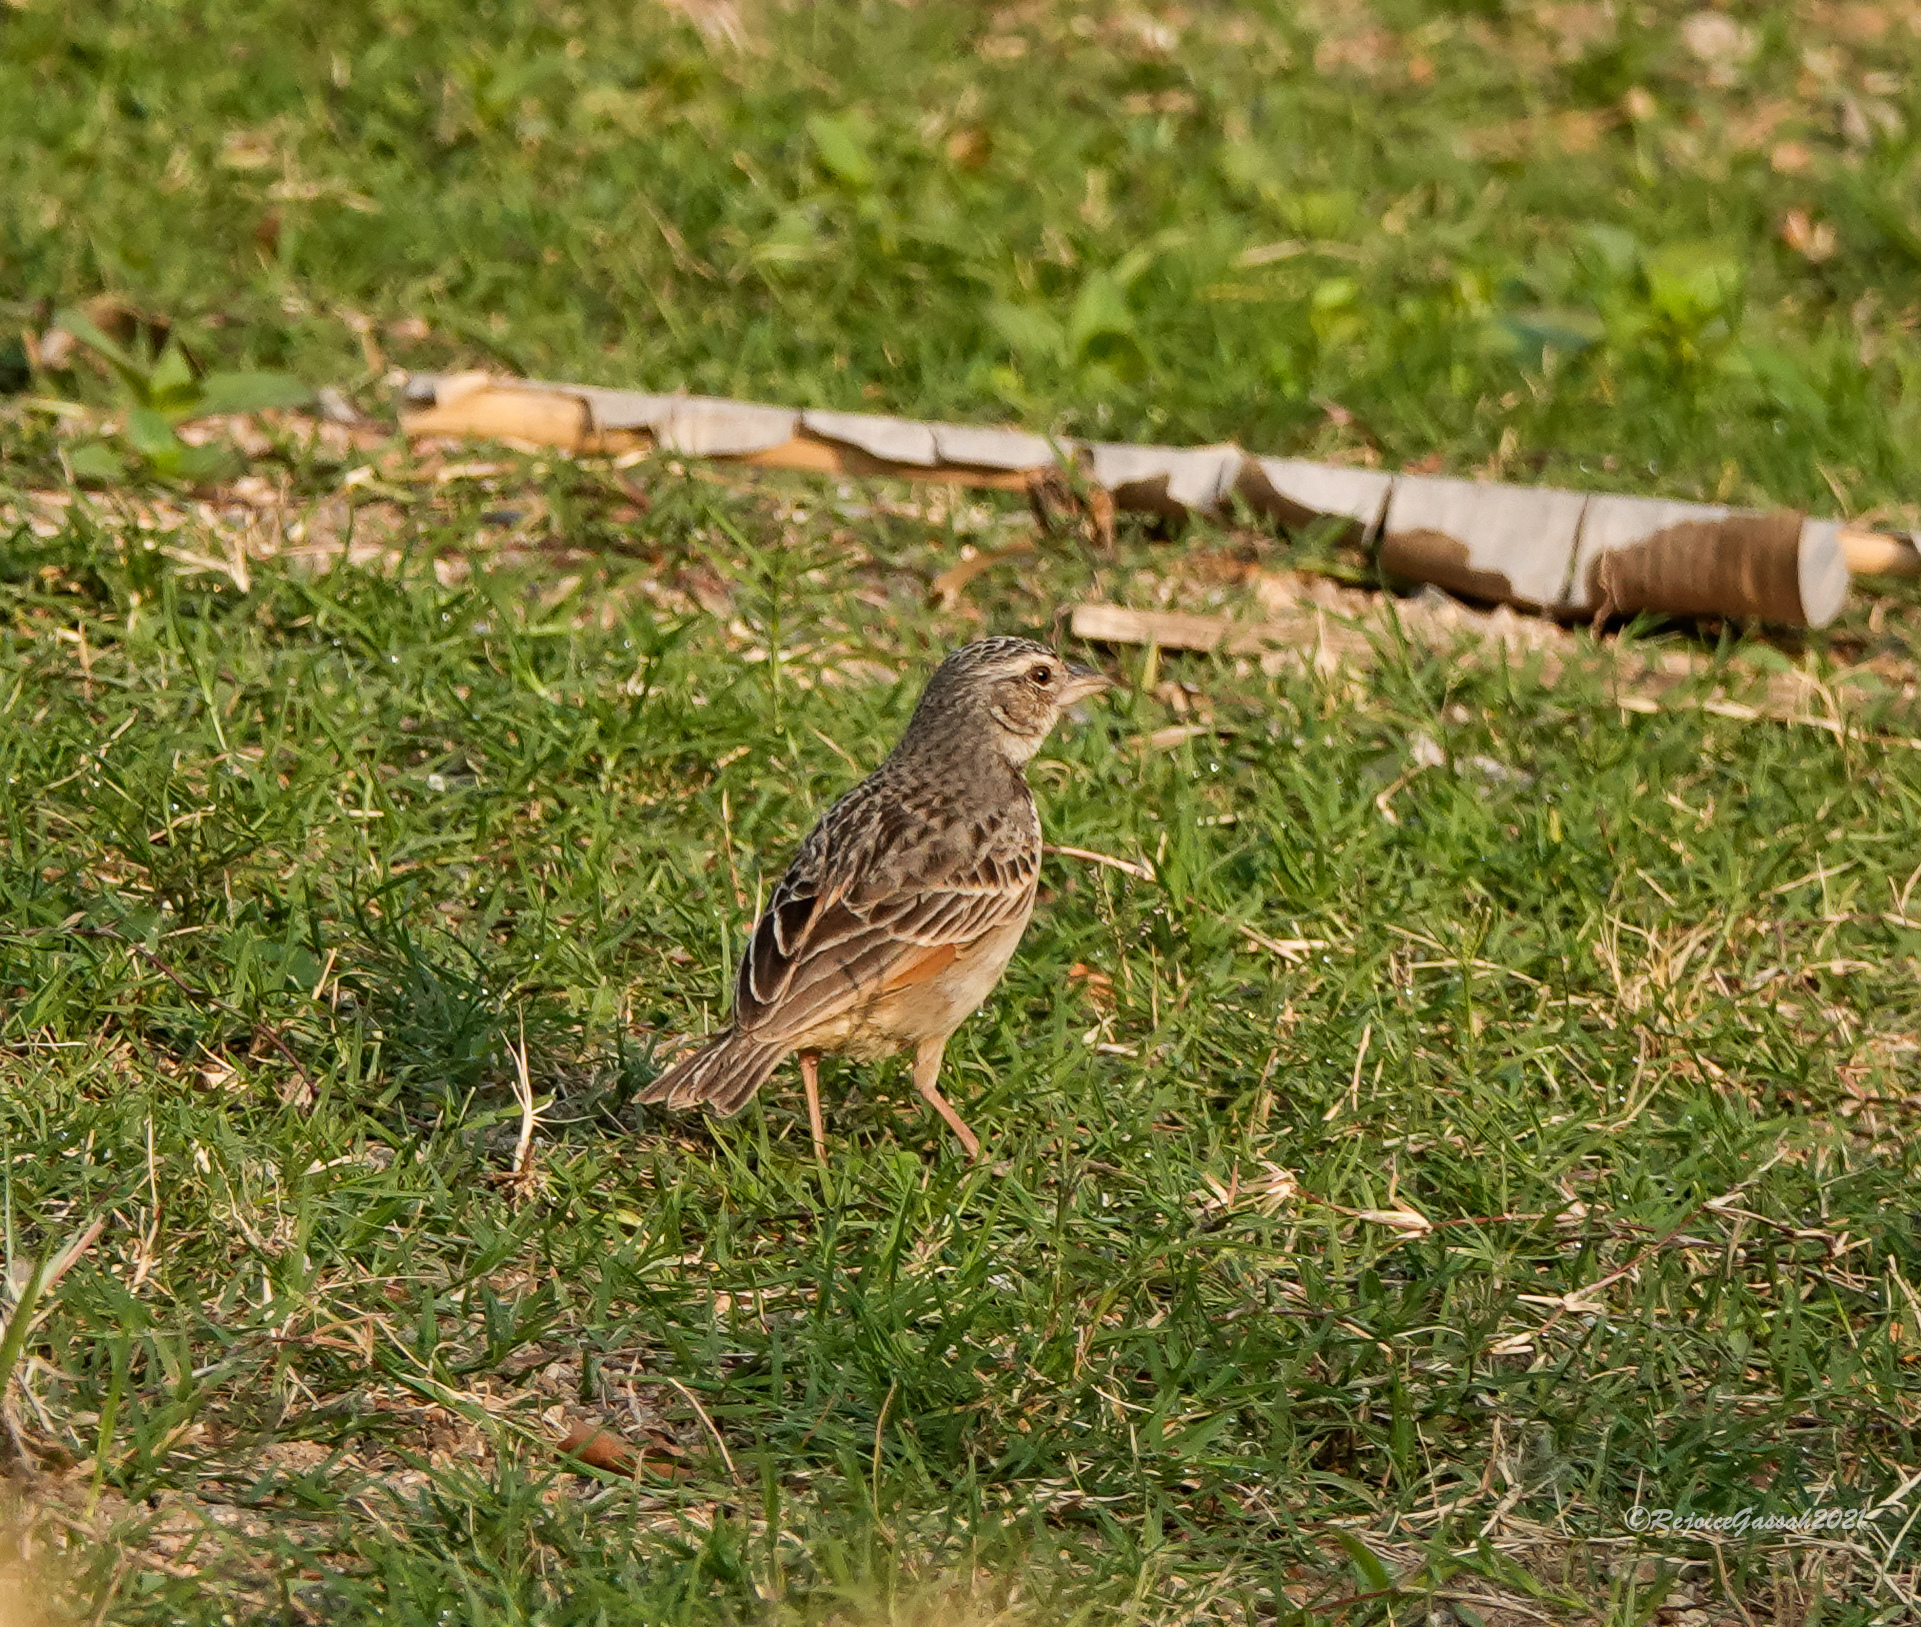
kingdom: Animalia
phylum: Chordata
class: Aves
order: Passeriformes
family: Alaudidae
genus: Mirafra
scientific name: Mirafra assamica
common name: Bengal bush lark
